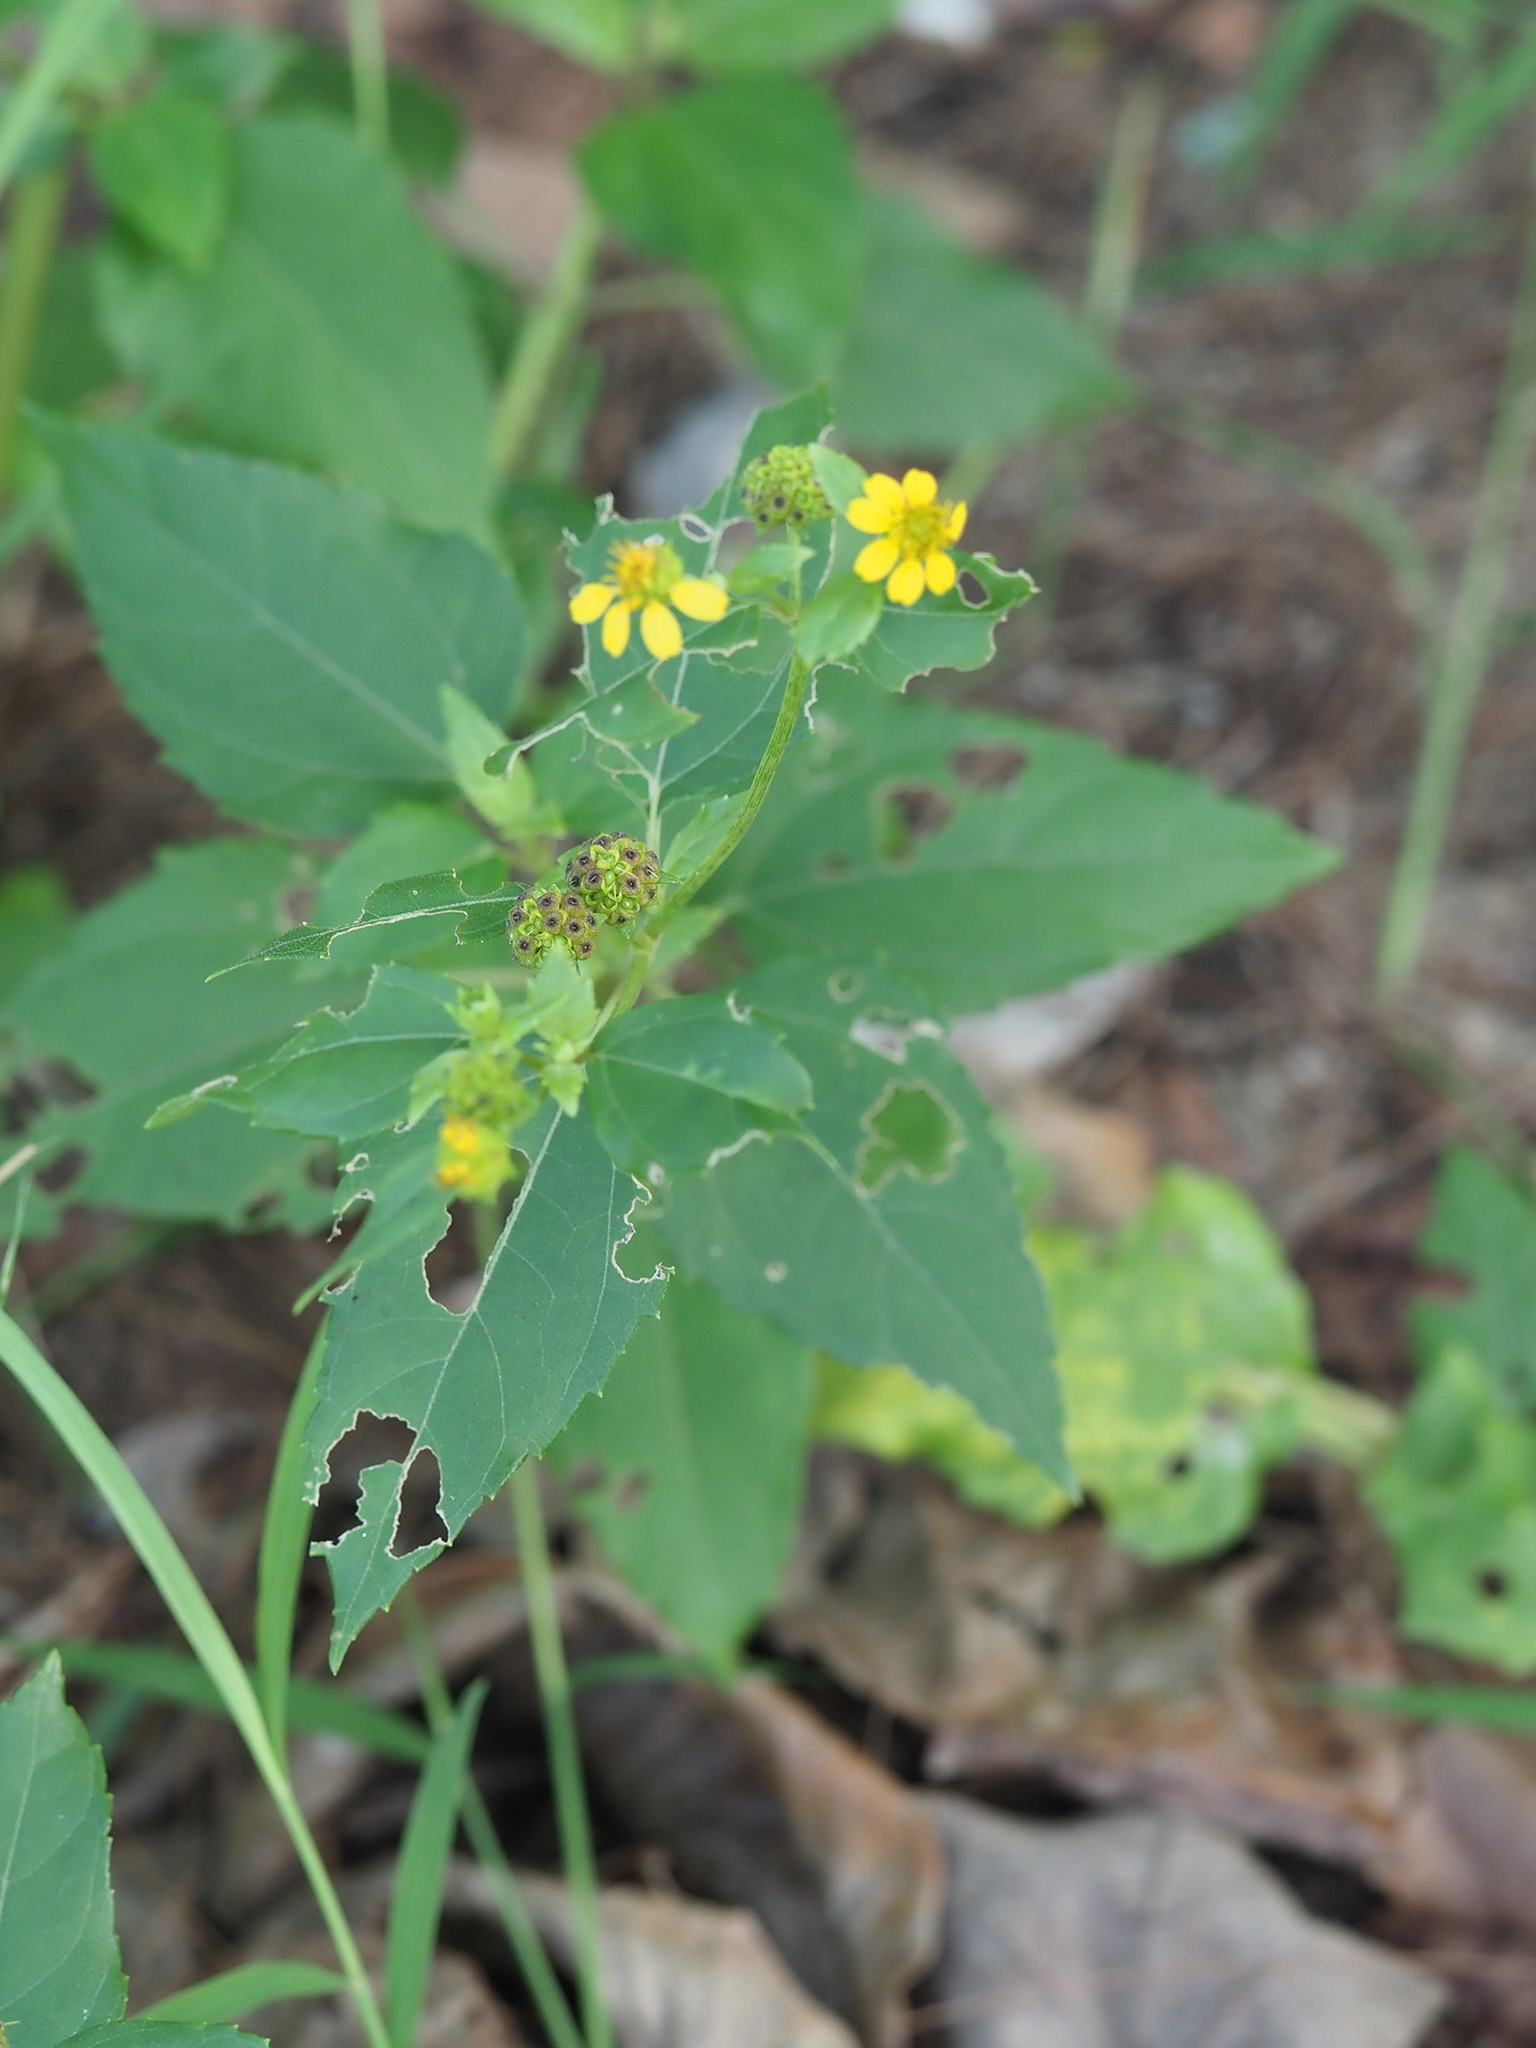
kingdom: Plantae
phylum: Tracheophyta
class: Magnoliopsida
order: Asterales
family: Asteraceae
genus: Wollastonia
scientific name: Wollastonia biflora
